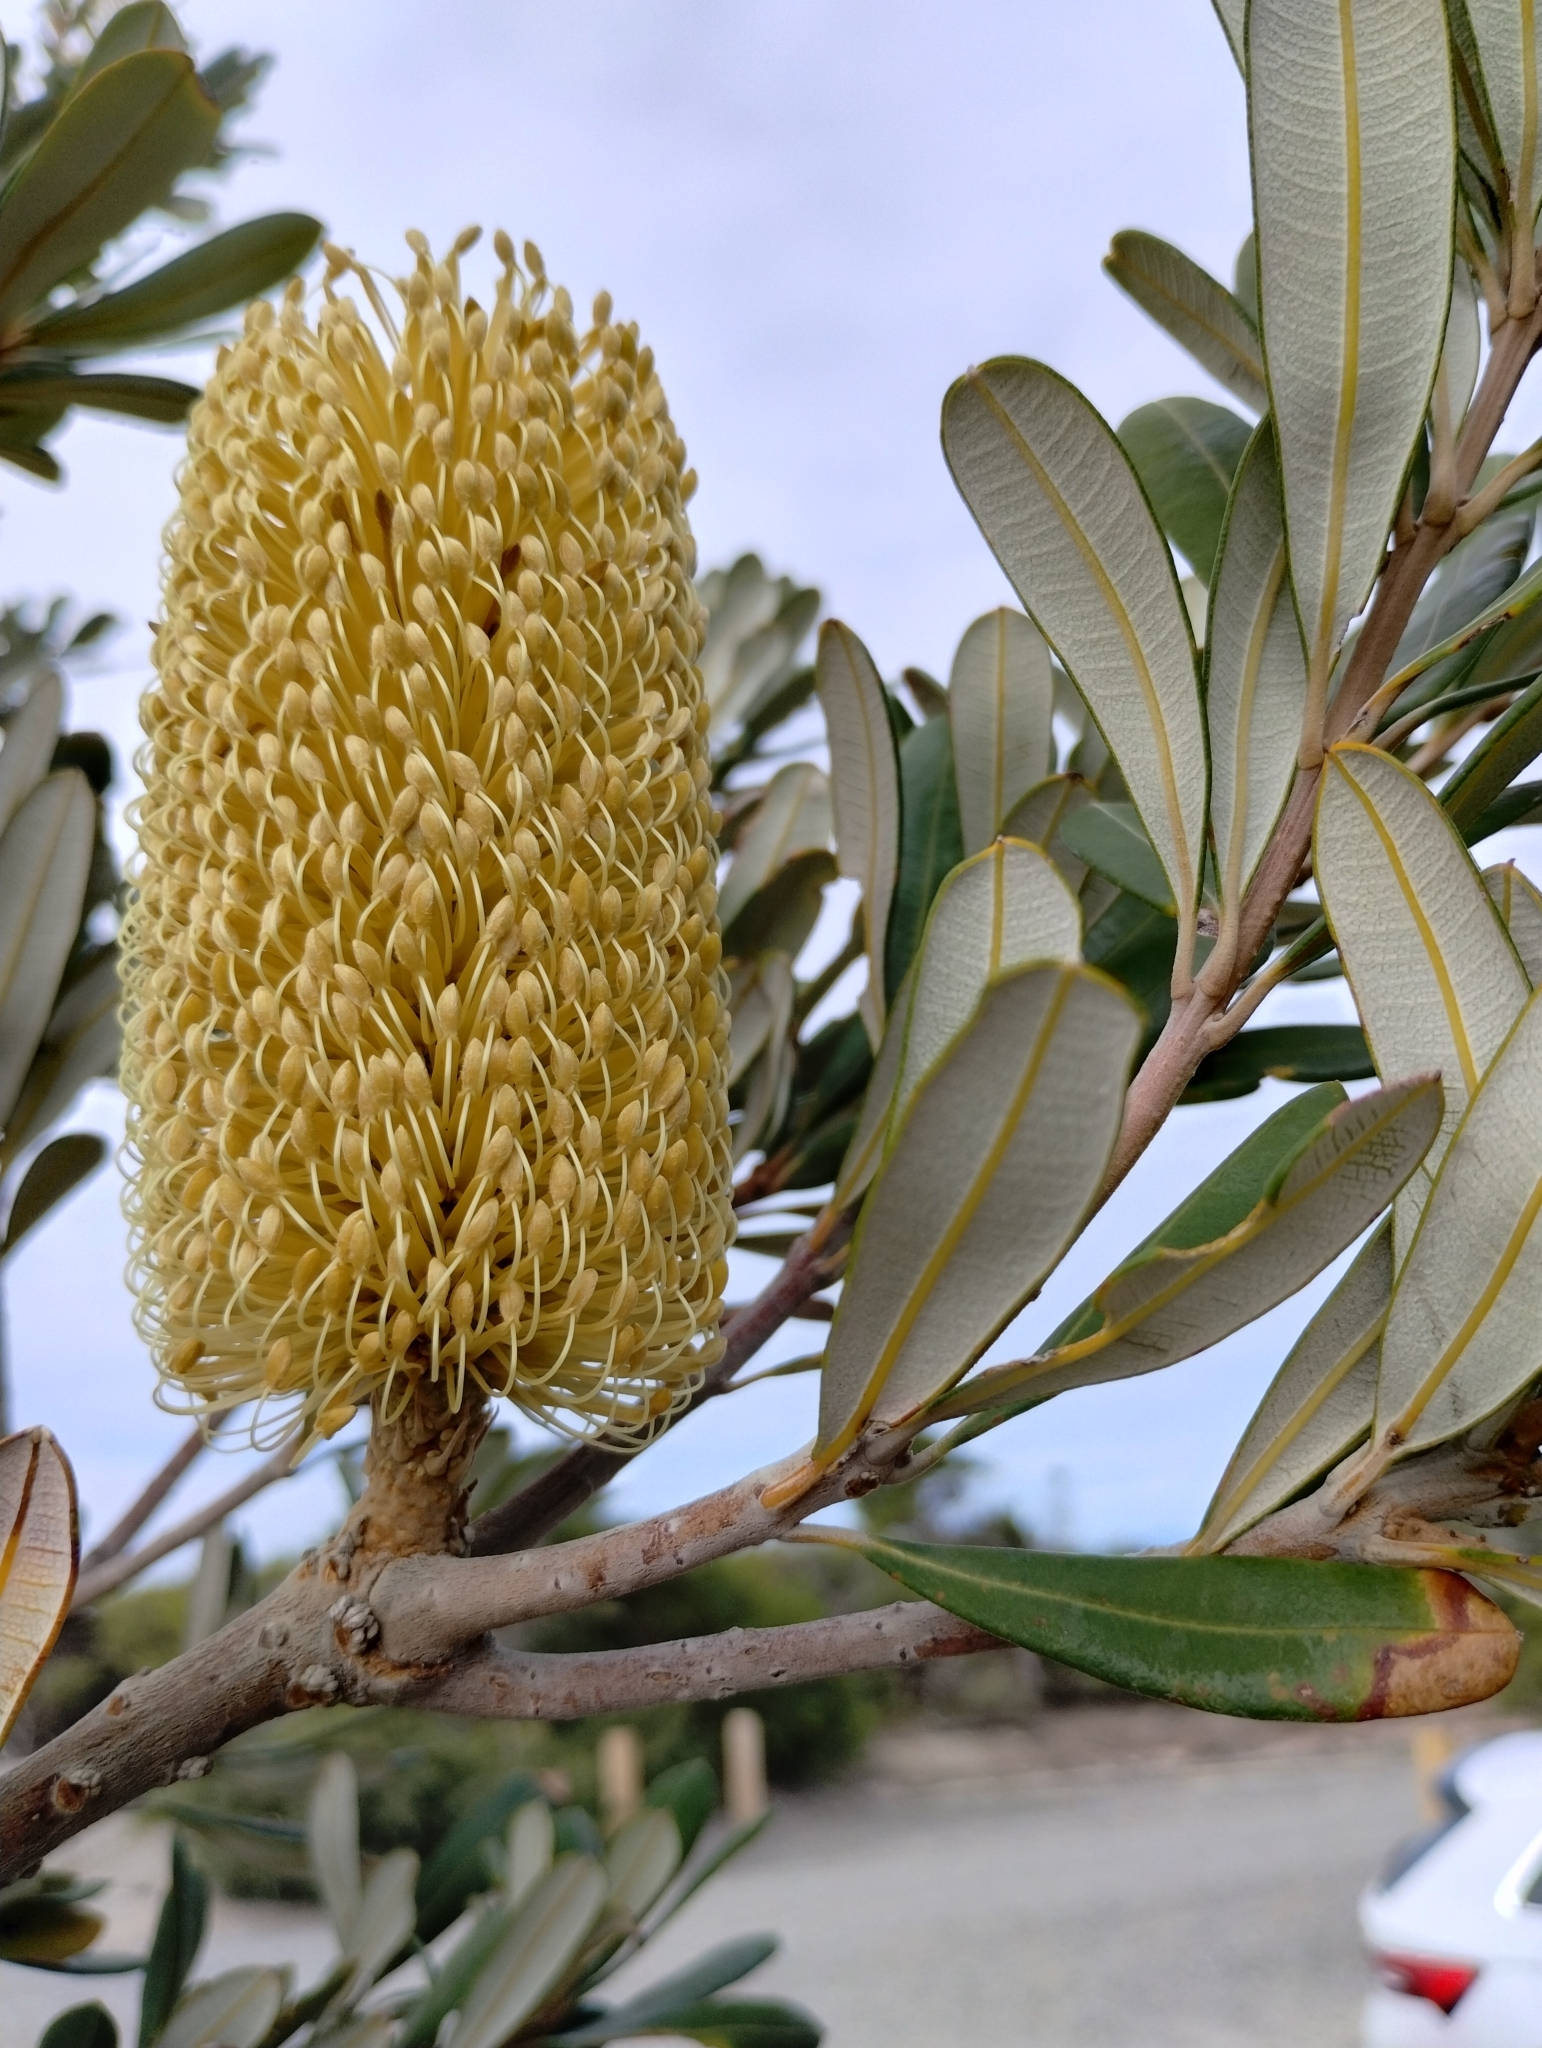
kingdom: Plantae
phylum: Tracheophyta
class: Magnoliopsida
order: Proteales
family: Proteaceae
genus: Banksia
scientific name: Banksia integrifolia
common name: White-honeysuckle
